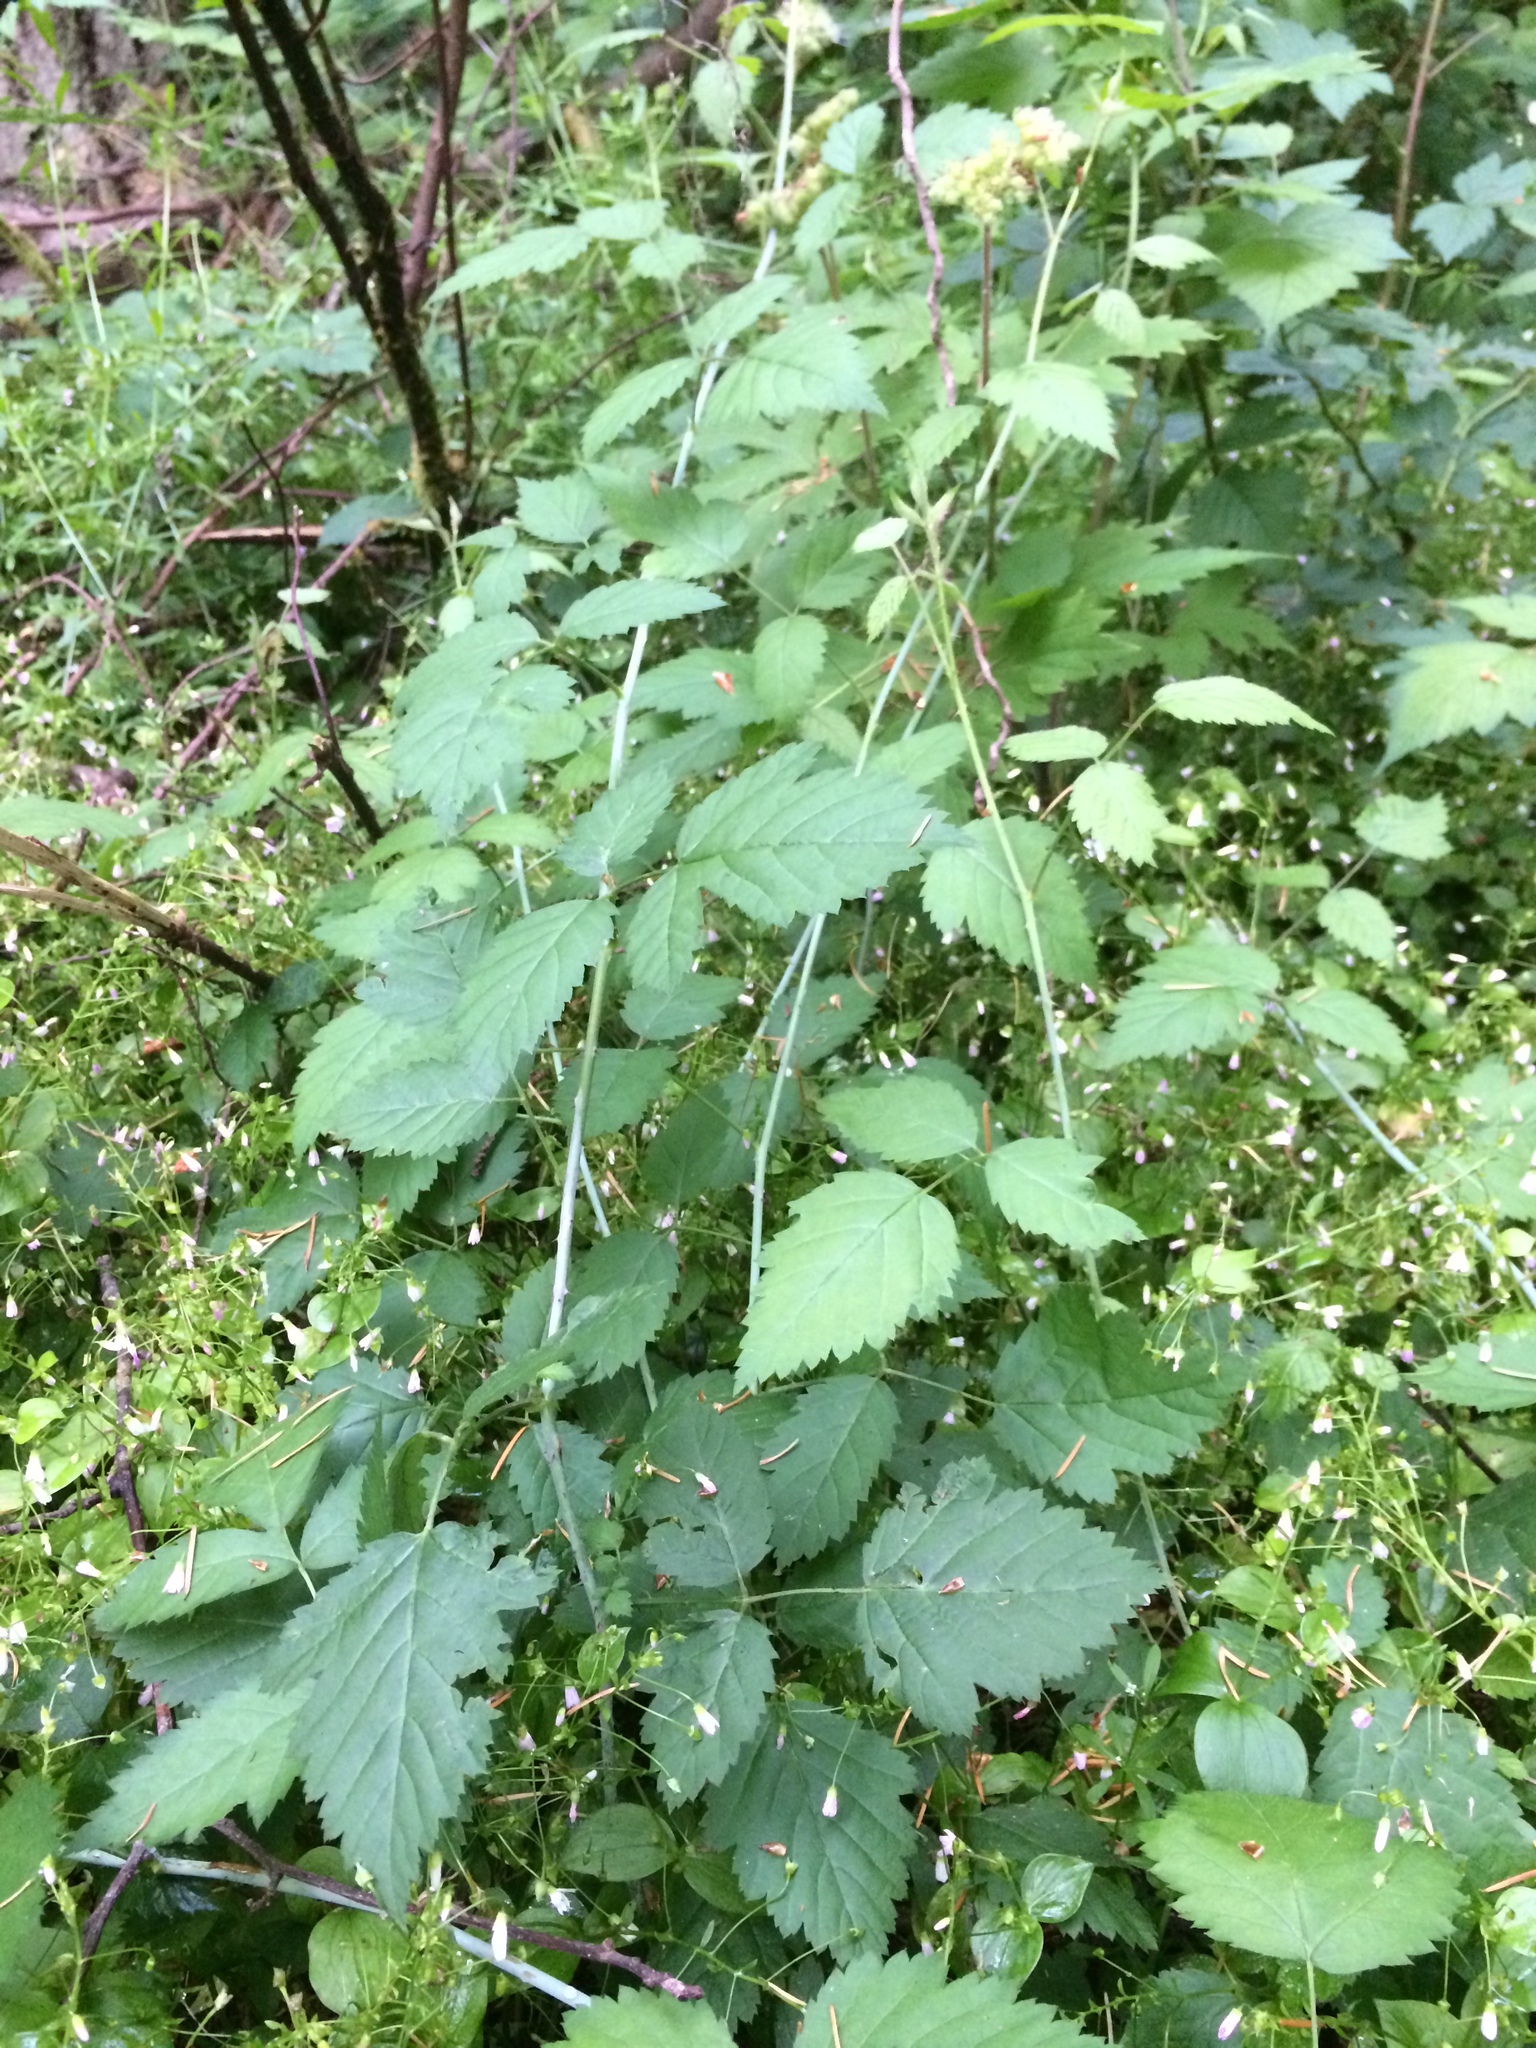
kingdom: Plantae
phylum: Tracheophyta
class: Magnoliopsida
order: Rosales
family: Rosaceae
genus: Rubus
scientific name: Rubus ursinus
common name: Pacific blackberry
